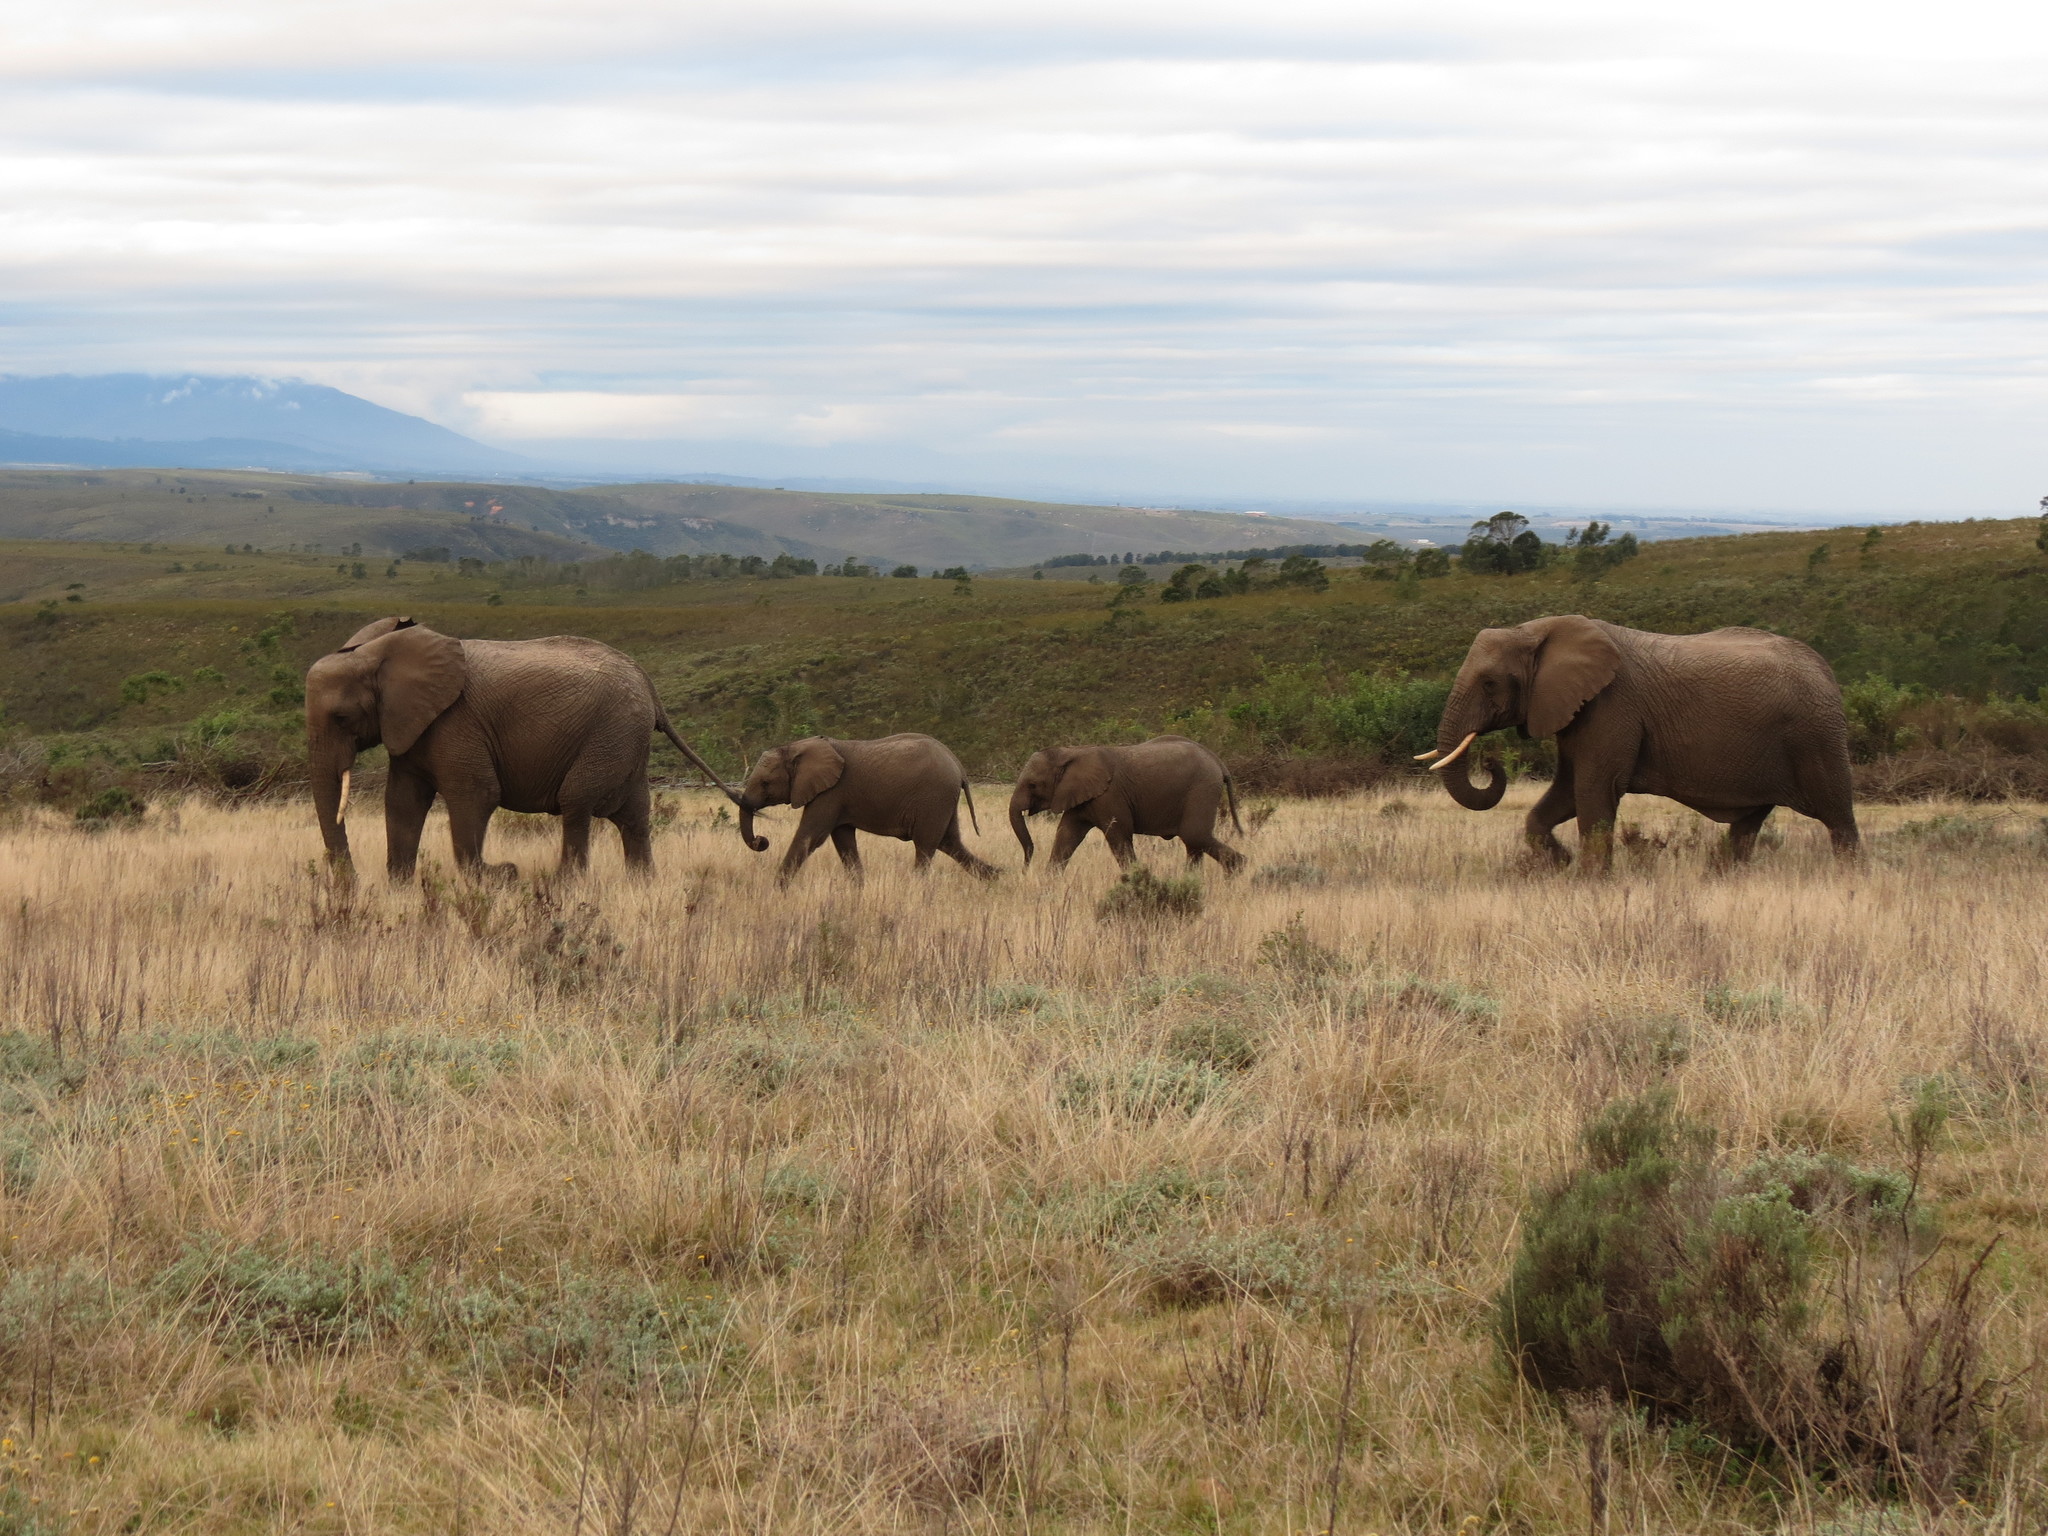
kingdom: Animalia
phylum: Chordata
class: Mammalia
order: Proboscidea
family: Elephantidae
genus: Loxodonta
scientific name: Loxodonta africana
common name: African elephant
